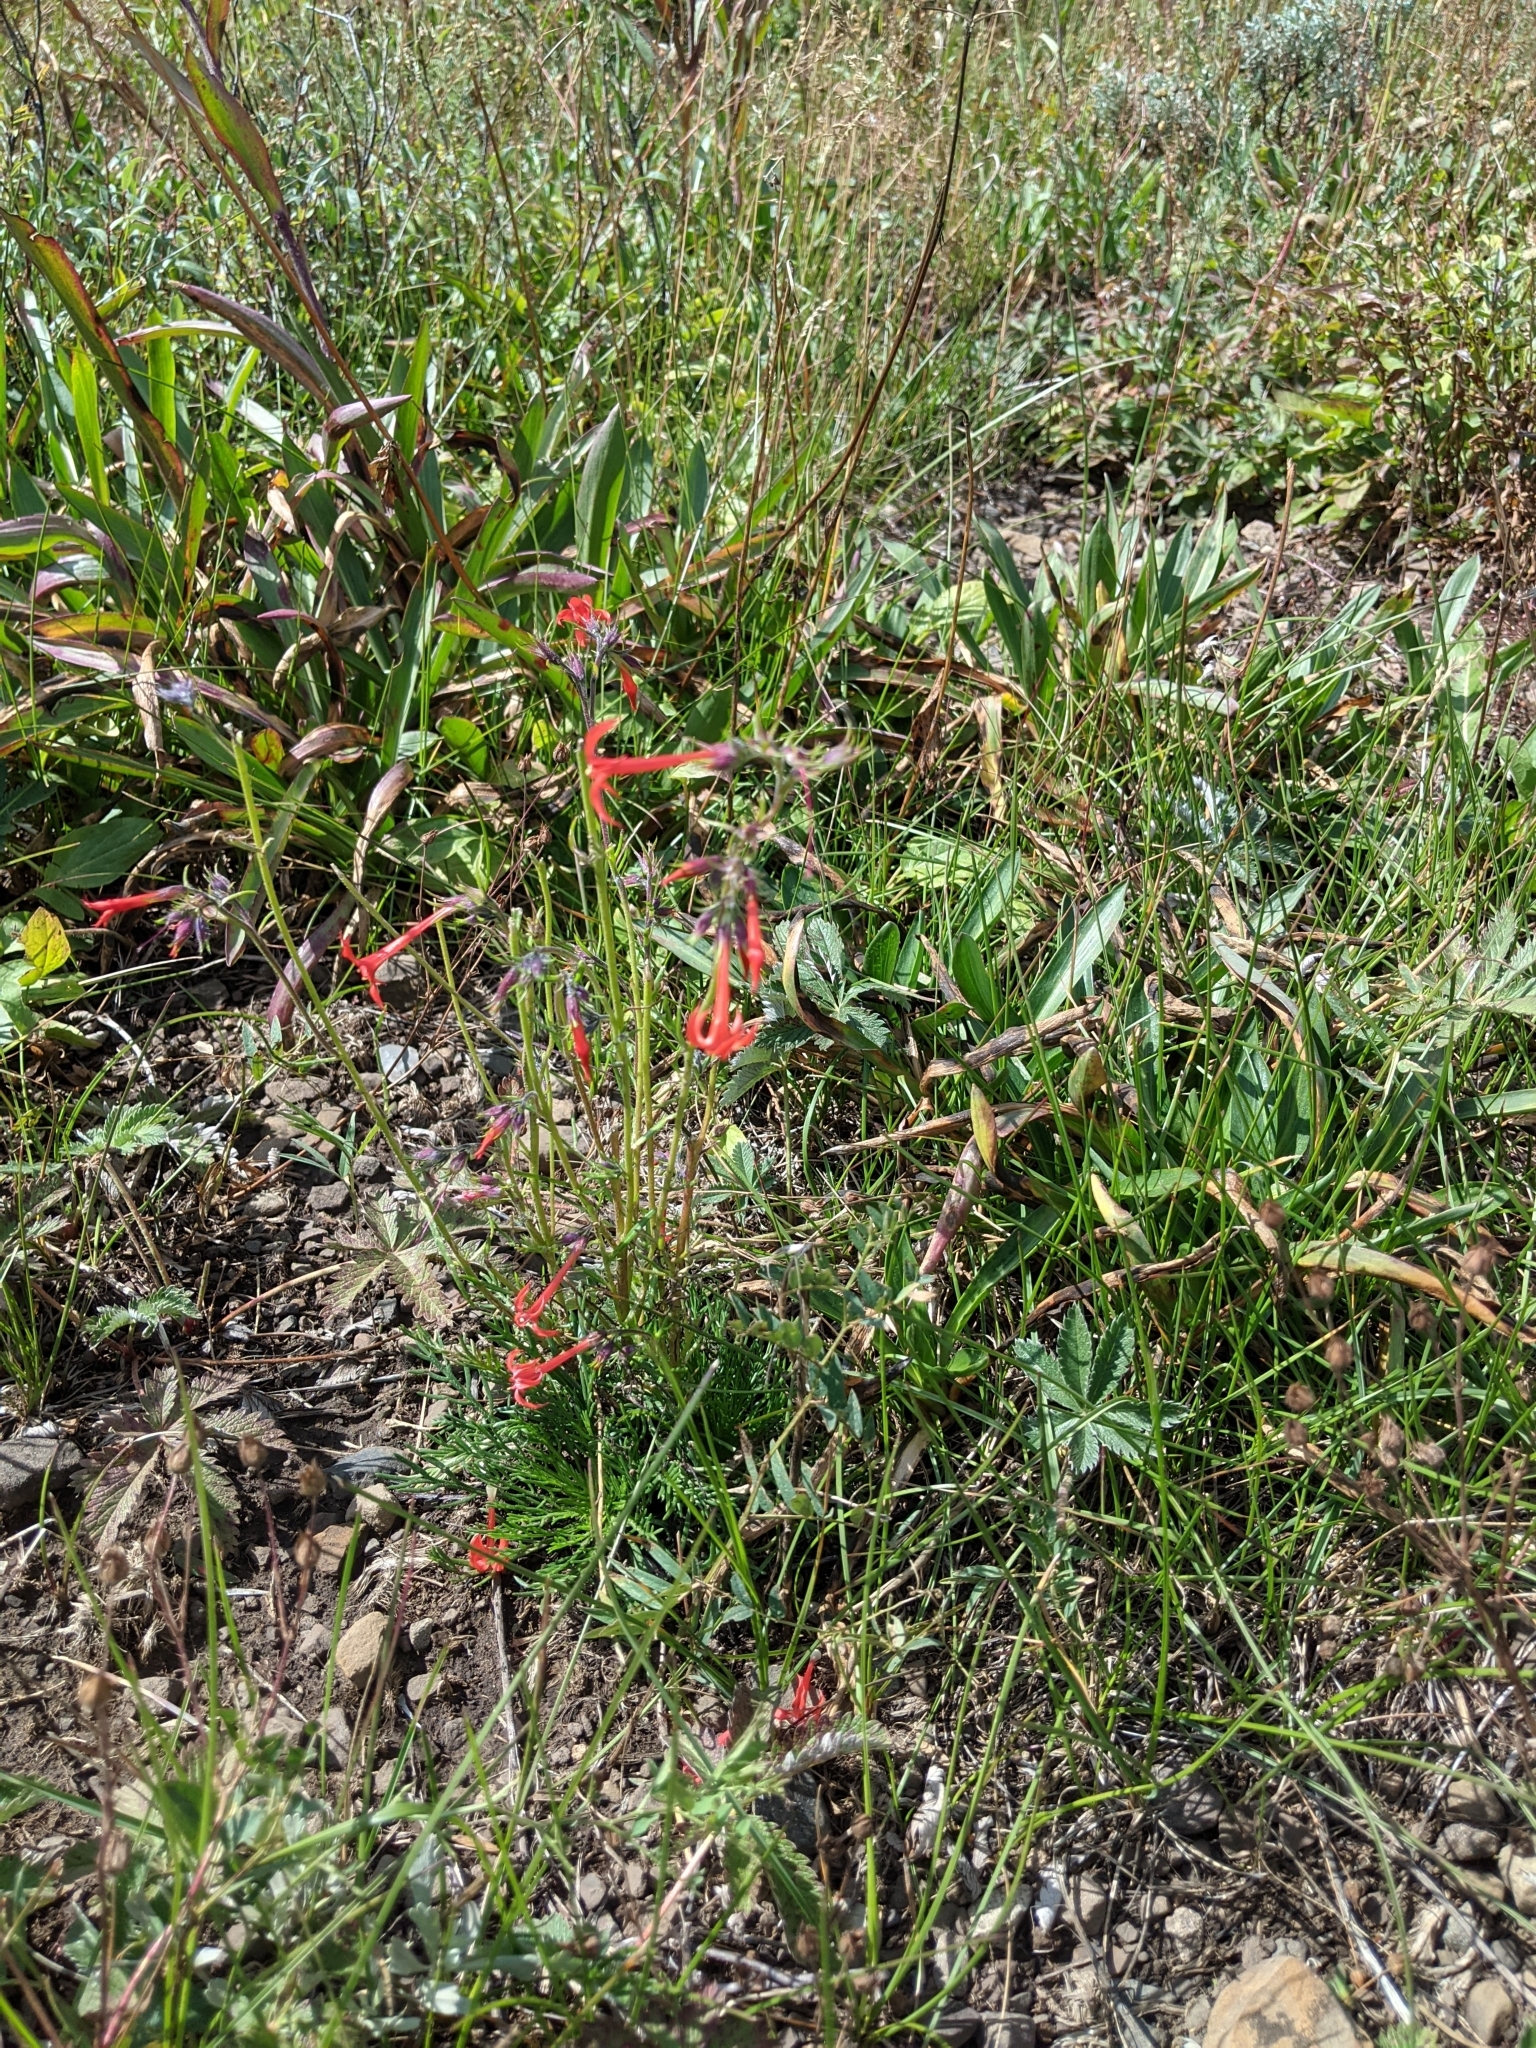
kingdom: Plantae
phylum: Tracheophyta
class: Magnoliopsida
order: Ericales
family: Polemoniaceae
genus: Ipomopsis
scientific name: Ipomopsis aggregata
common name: Scarlet gilia
